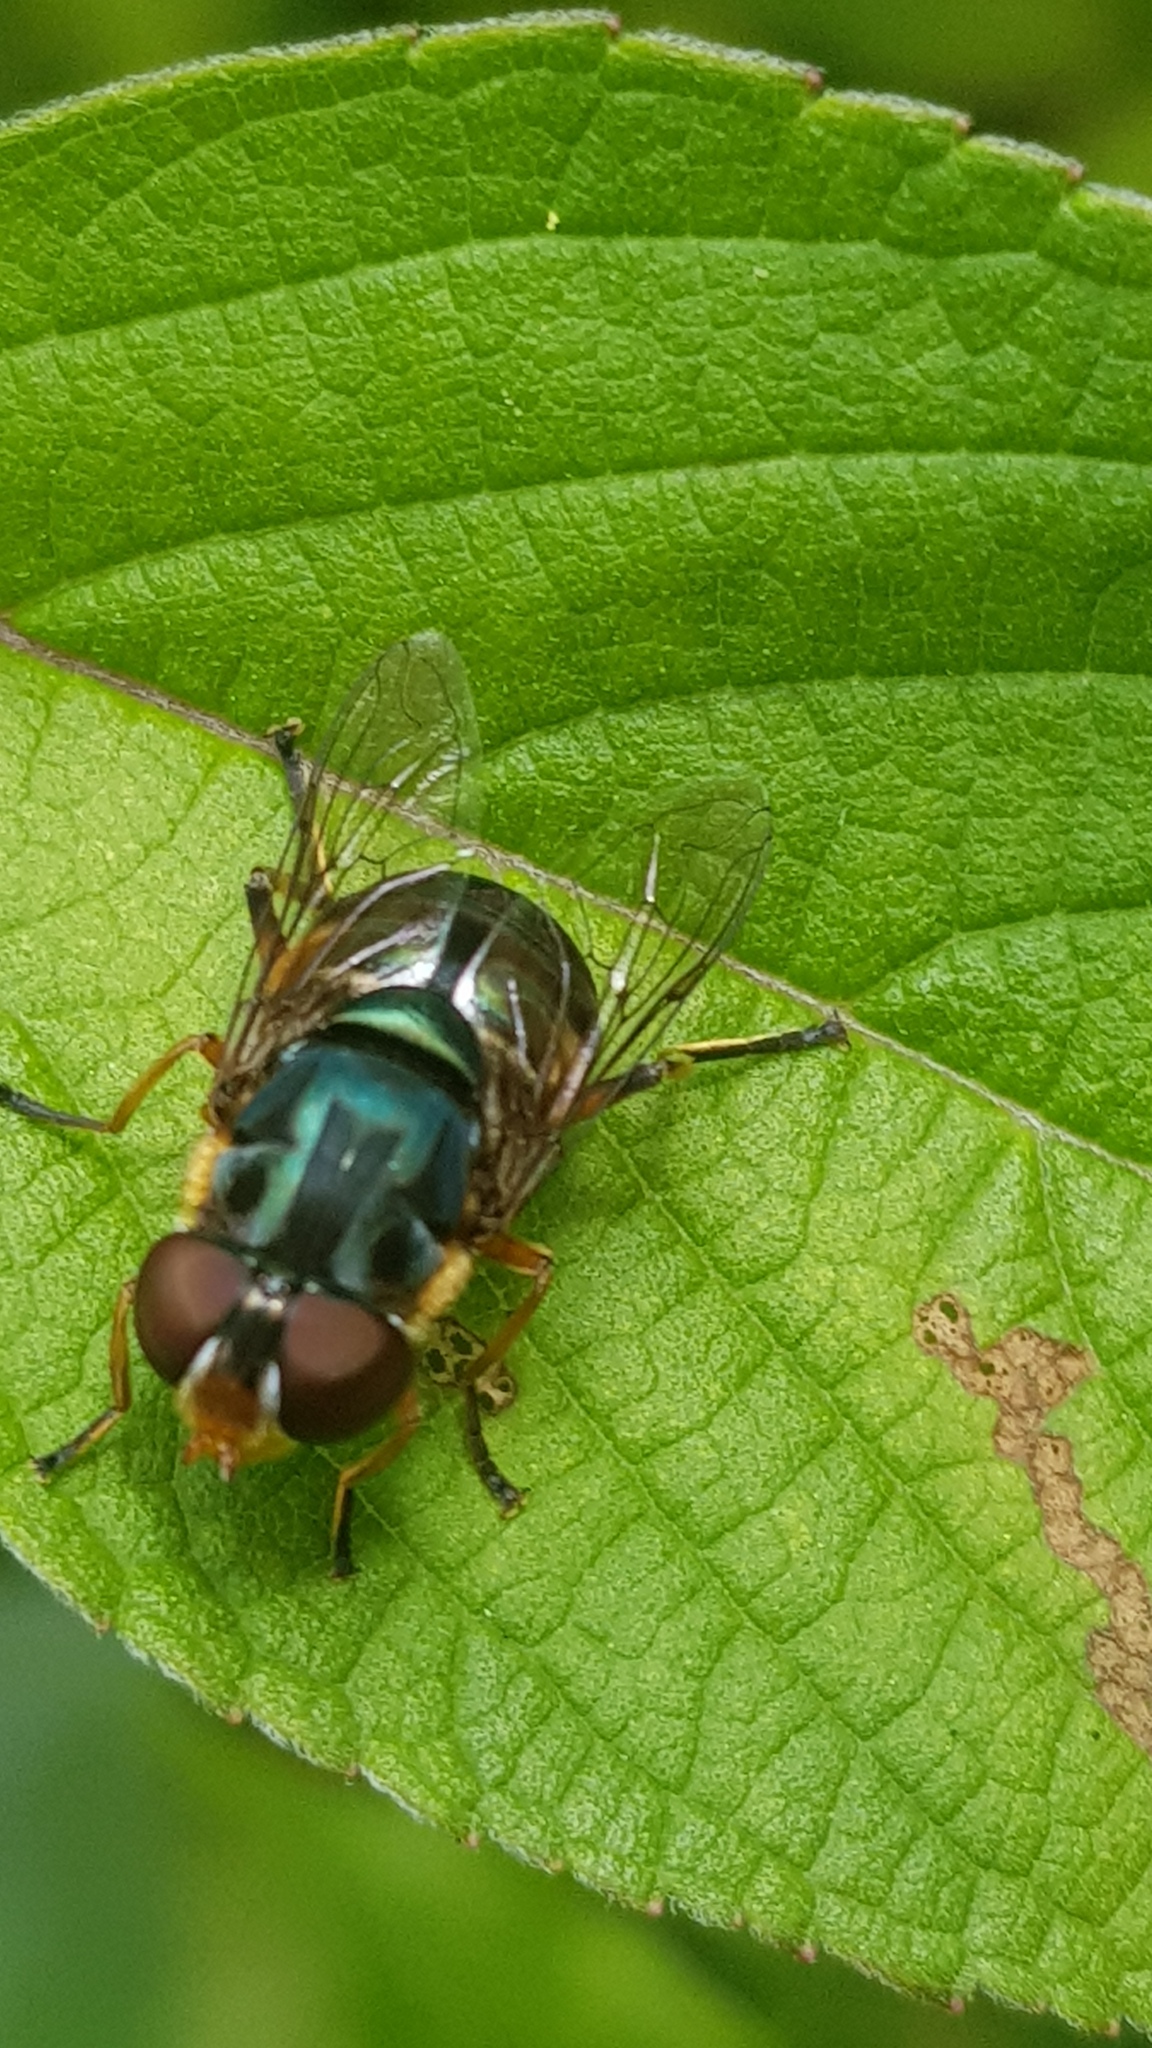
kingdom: Animalia
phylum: Arthropoda
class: Insecta
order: Diptera
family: Syrphidae
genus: Austalis
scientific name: Austalis copiosa
